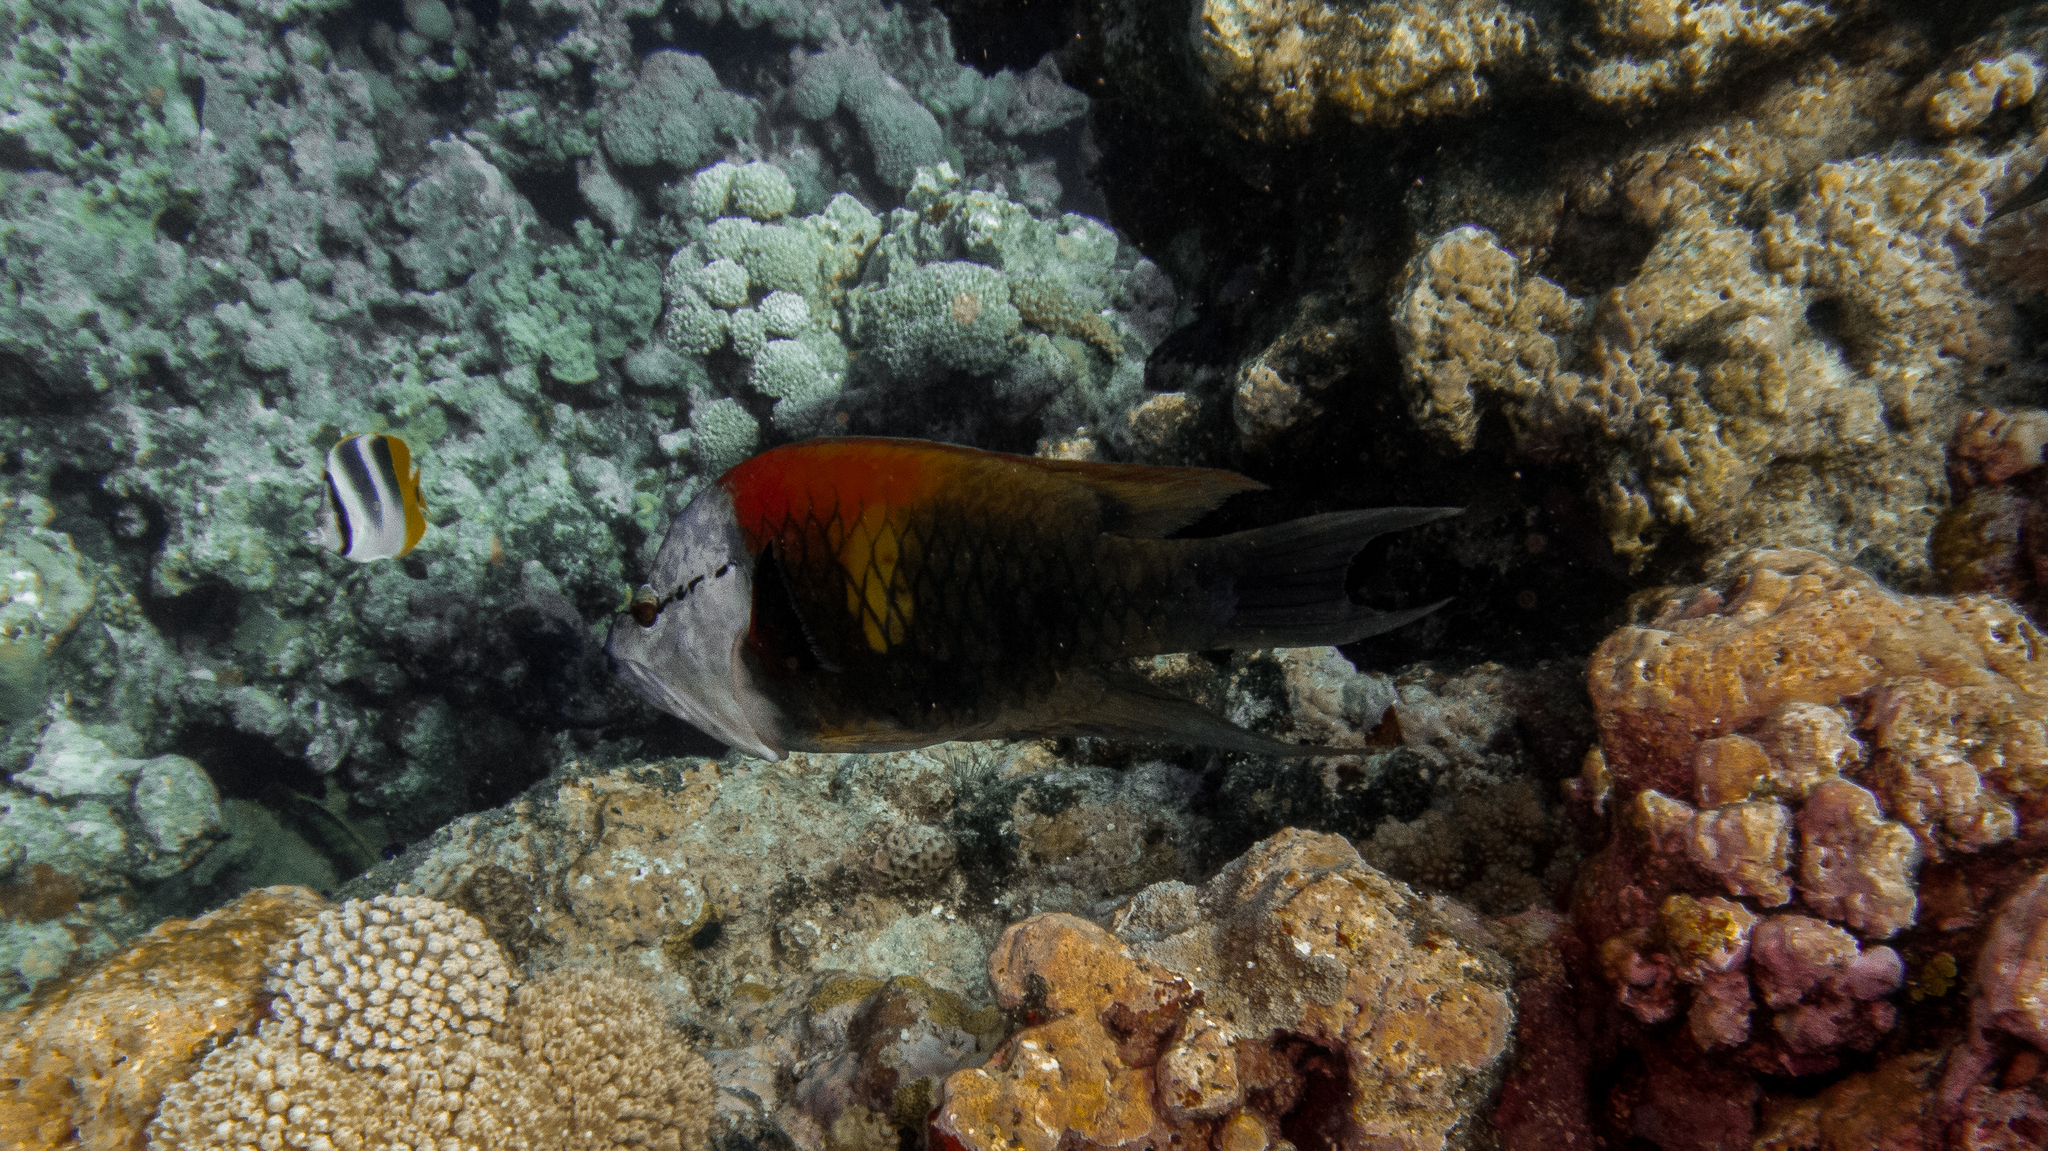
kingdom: Animalia
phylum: Chordata
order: Perciformes
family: Labridae
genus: Epibulus
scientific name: Epibulus insidiator
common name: Slingjaw wrasse
